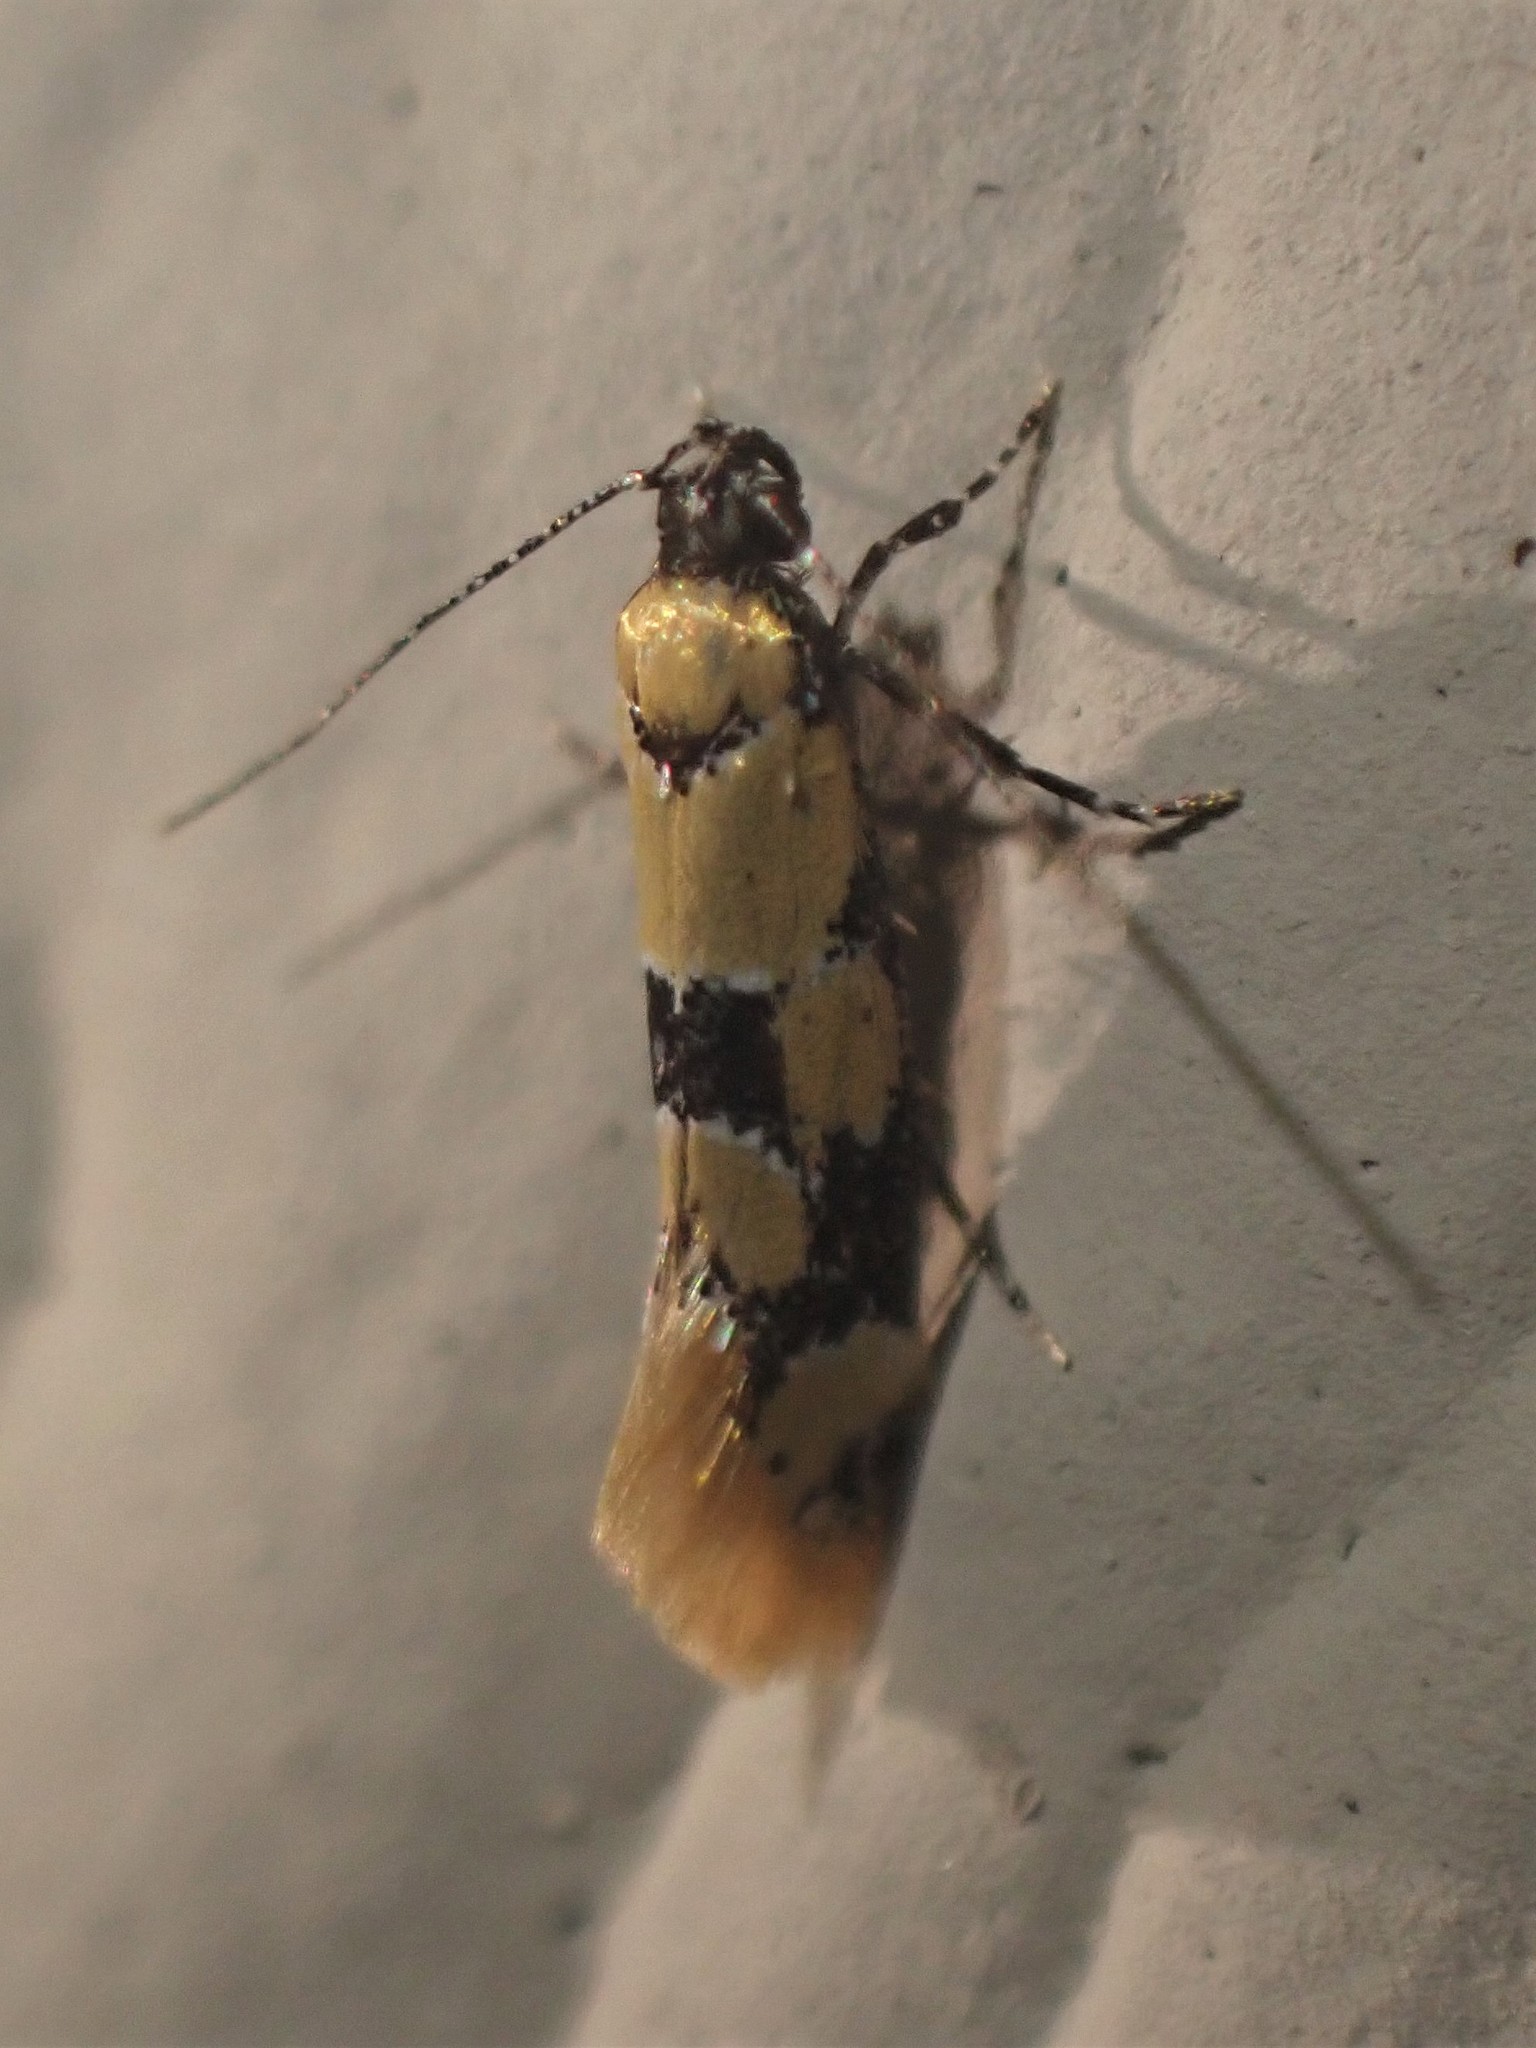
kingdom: Animalia
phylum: Arthropoda
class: Insecta
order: Lepidoptera
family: Oecophoridae
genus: Decantha
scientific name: Decantha stonda
